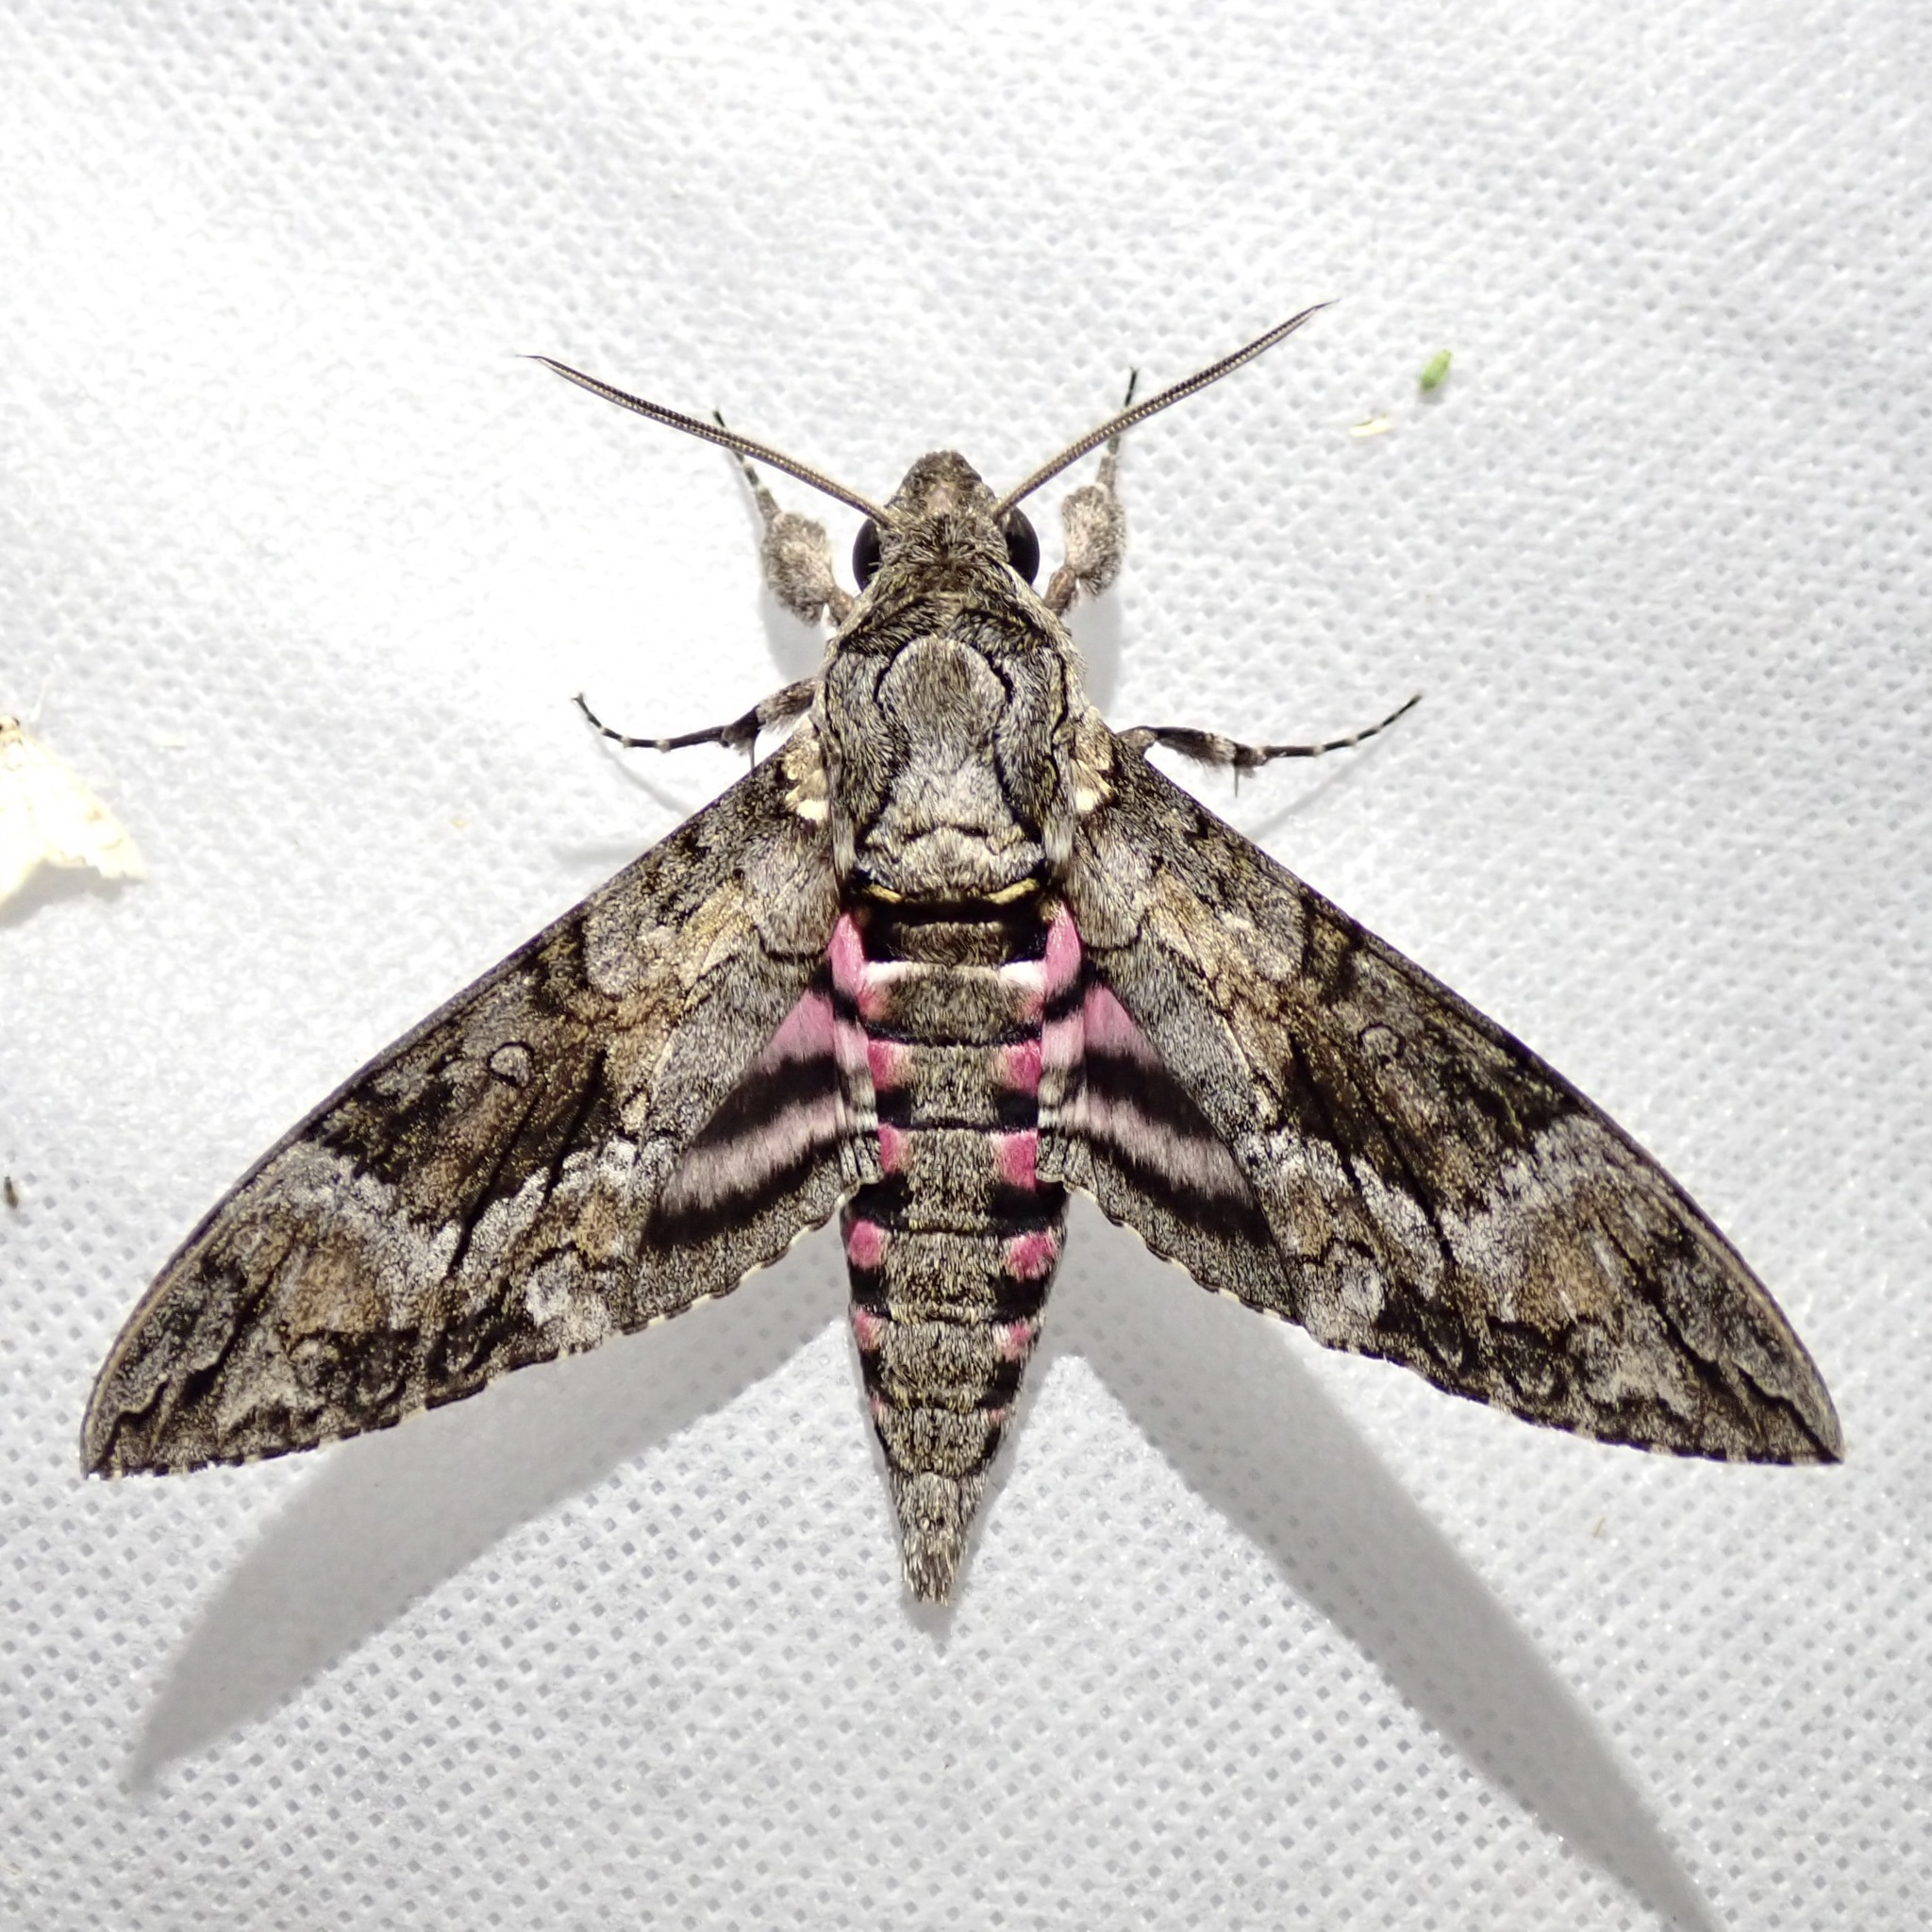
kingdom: Animalia
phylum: Arthropoda
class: Insecta
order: Lepidoptera
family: Sphingidae
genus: Agrius
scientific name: Agrius cingulata
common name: Pink-spotted hawkmoth
